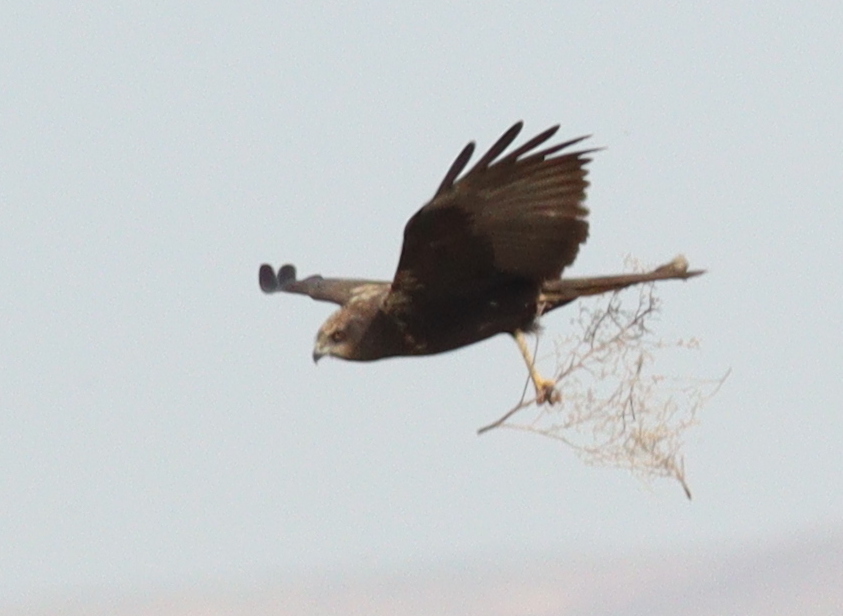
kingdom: Animalia
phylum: Chordata
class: Aves
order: Accipitriformes
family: Accipitridae
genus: Circus
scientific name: Circus aeruginosus
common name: Western marsh harrier
